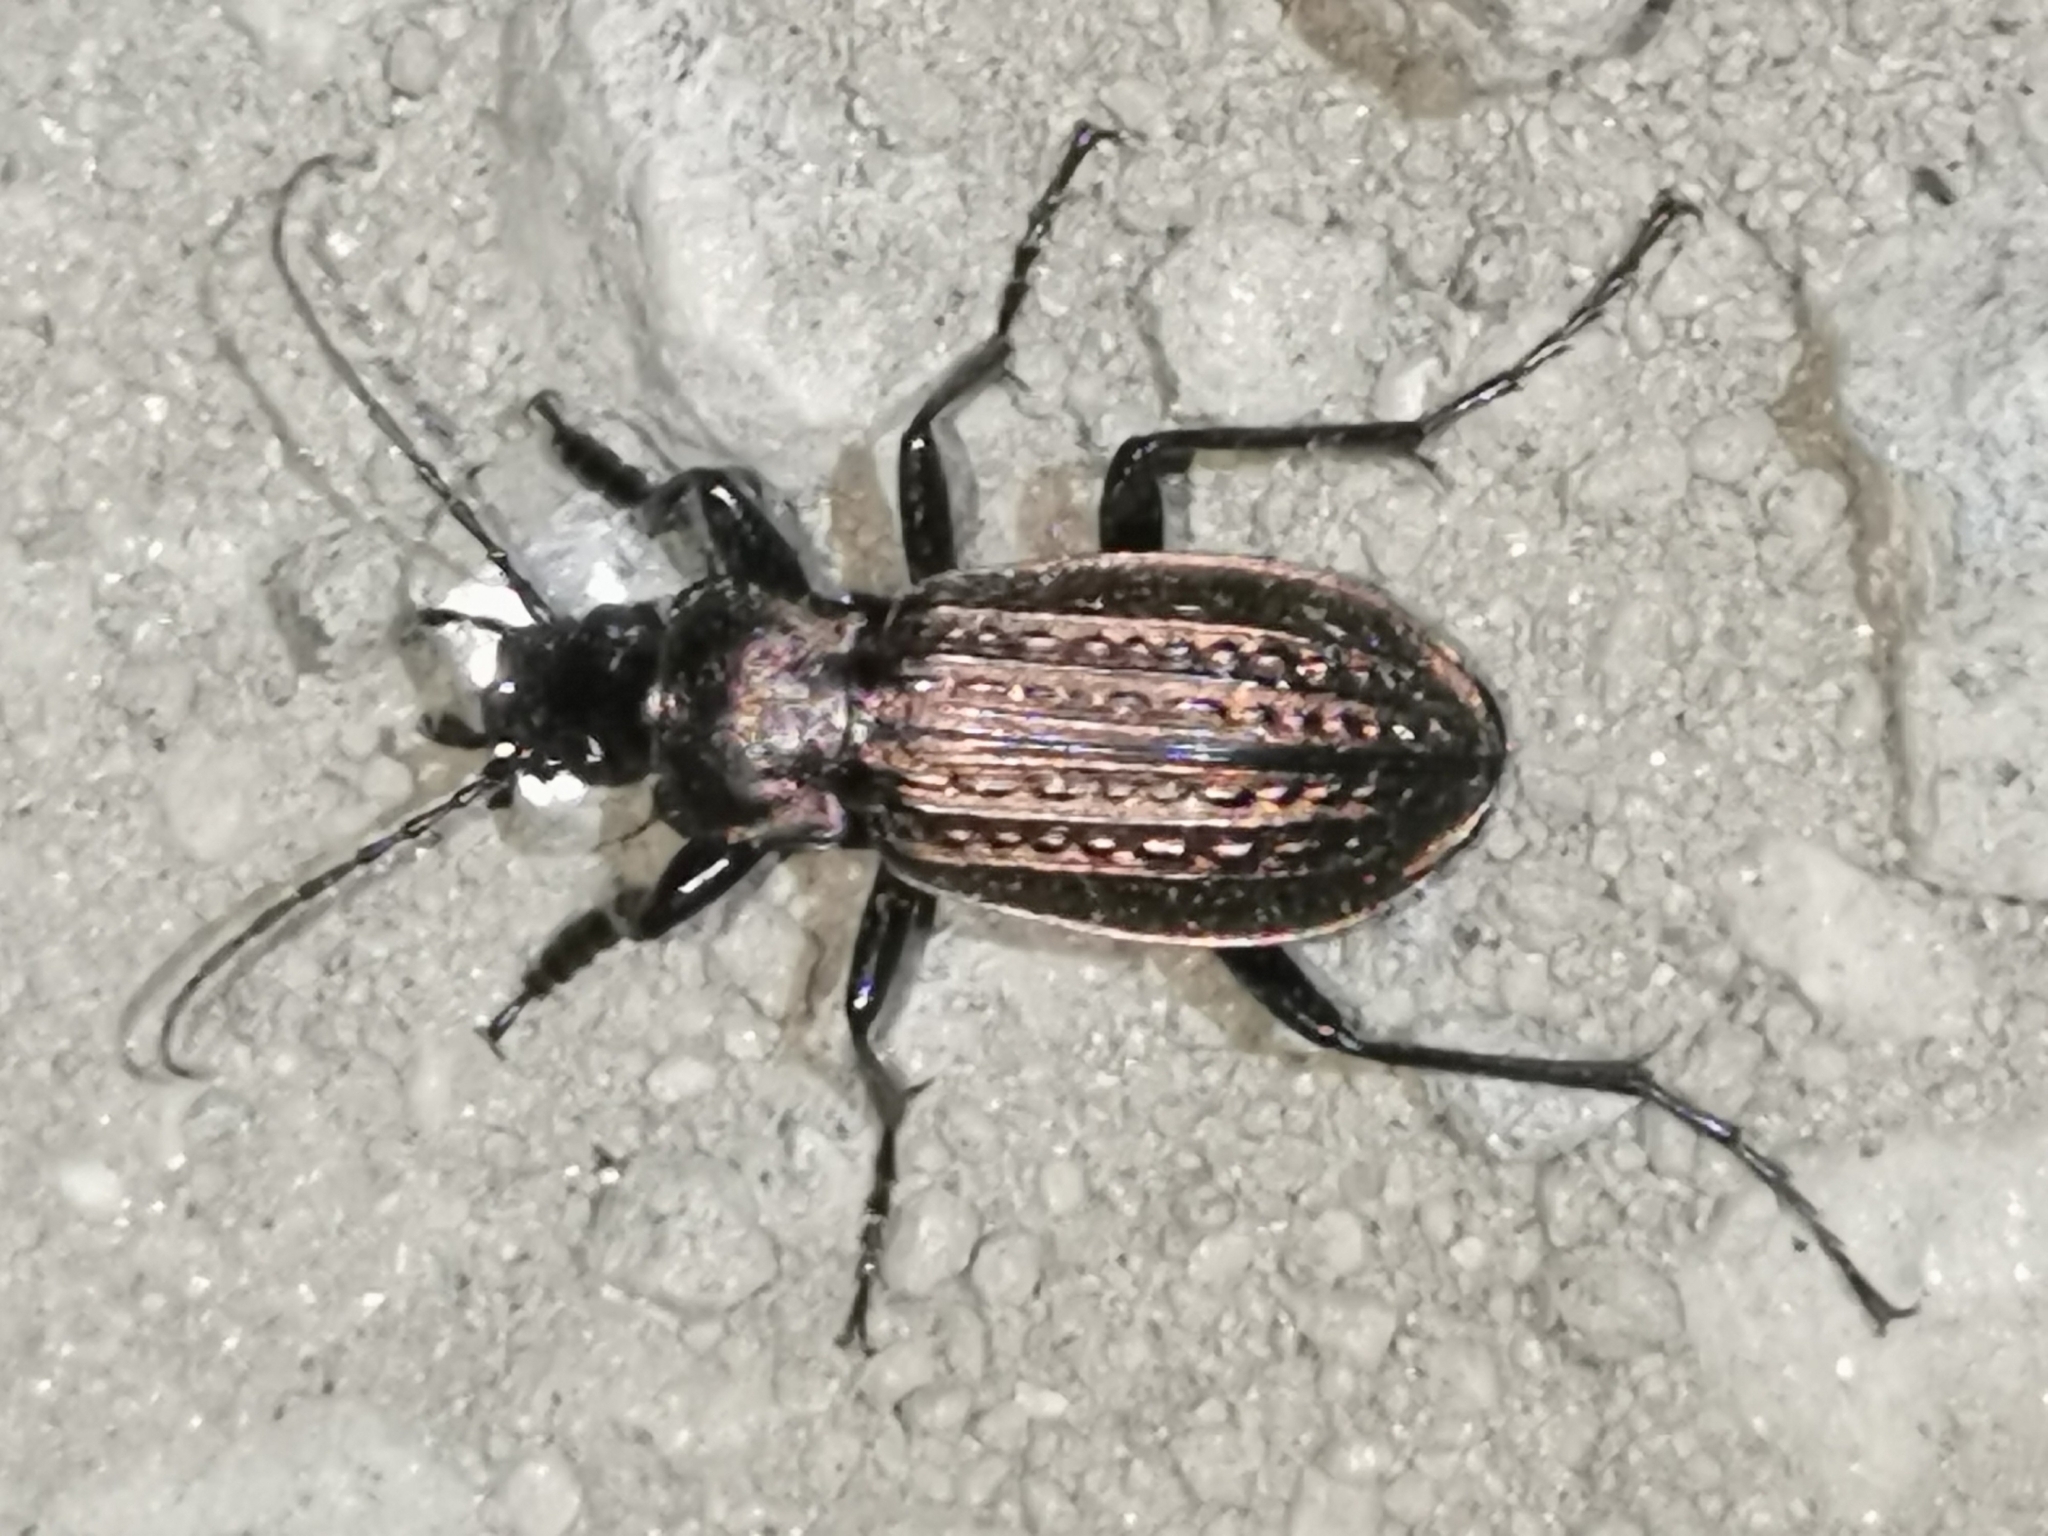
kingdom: Animalia
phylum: Arthropoda
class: Insecta
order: Coleoptera
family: Carabidae
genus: Carabus
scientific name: Carabus granulatus
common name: Granulate ground beetle
